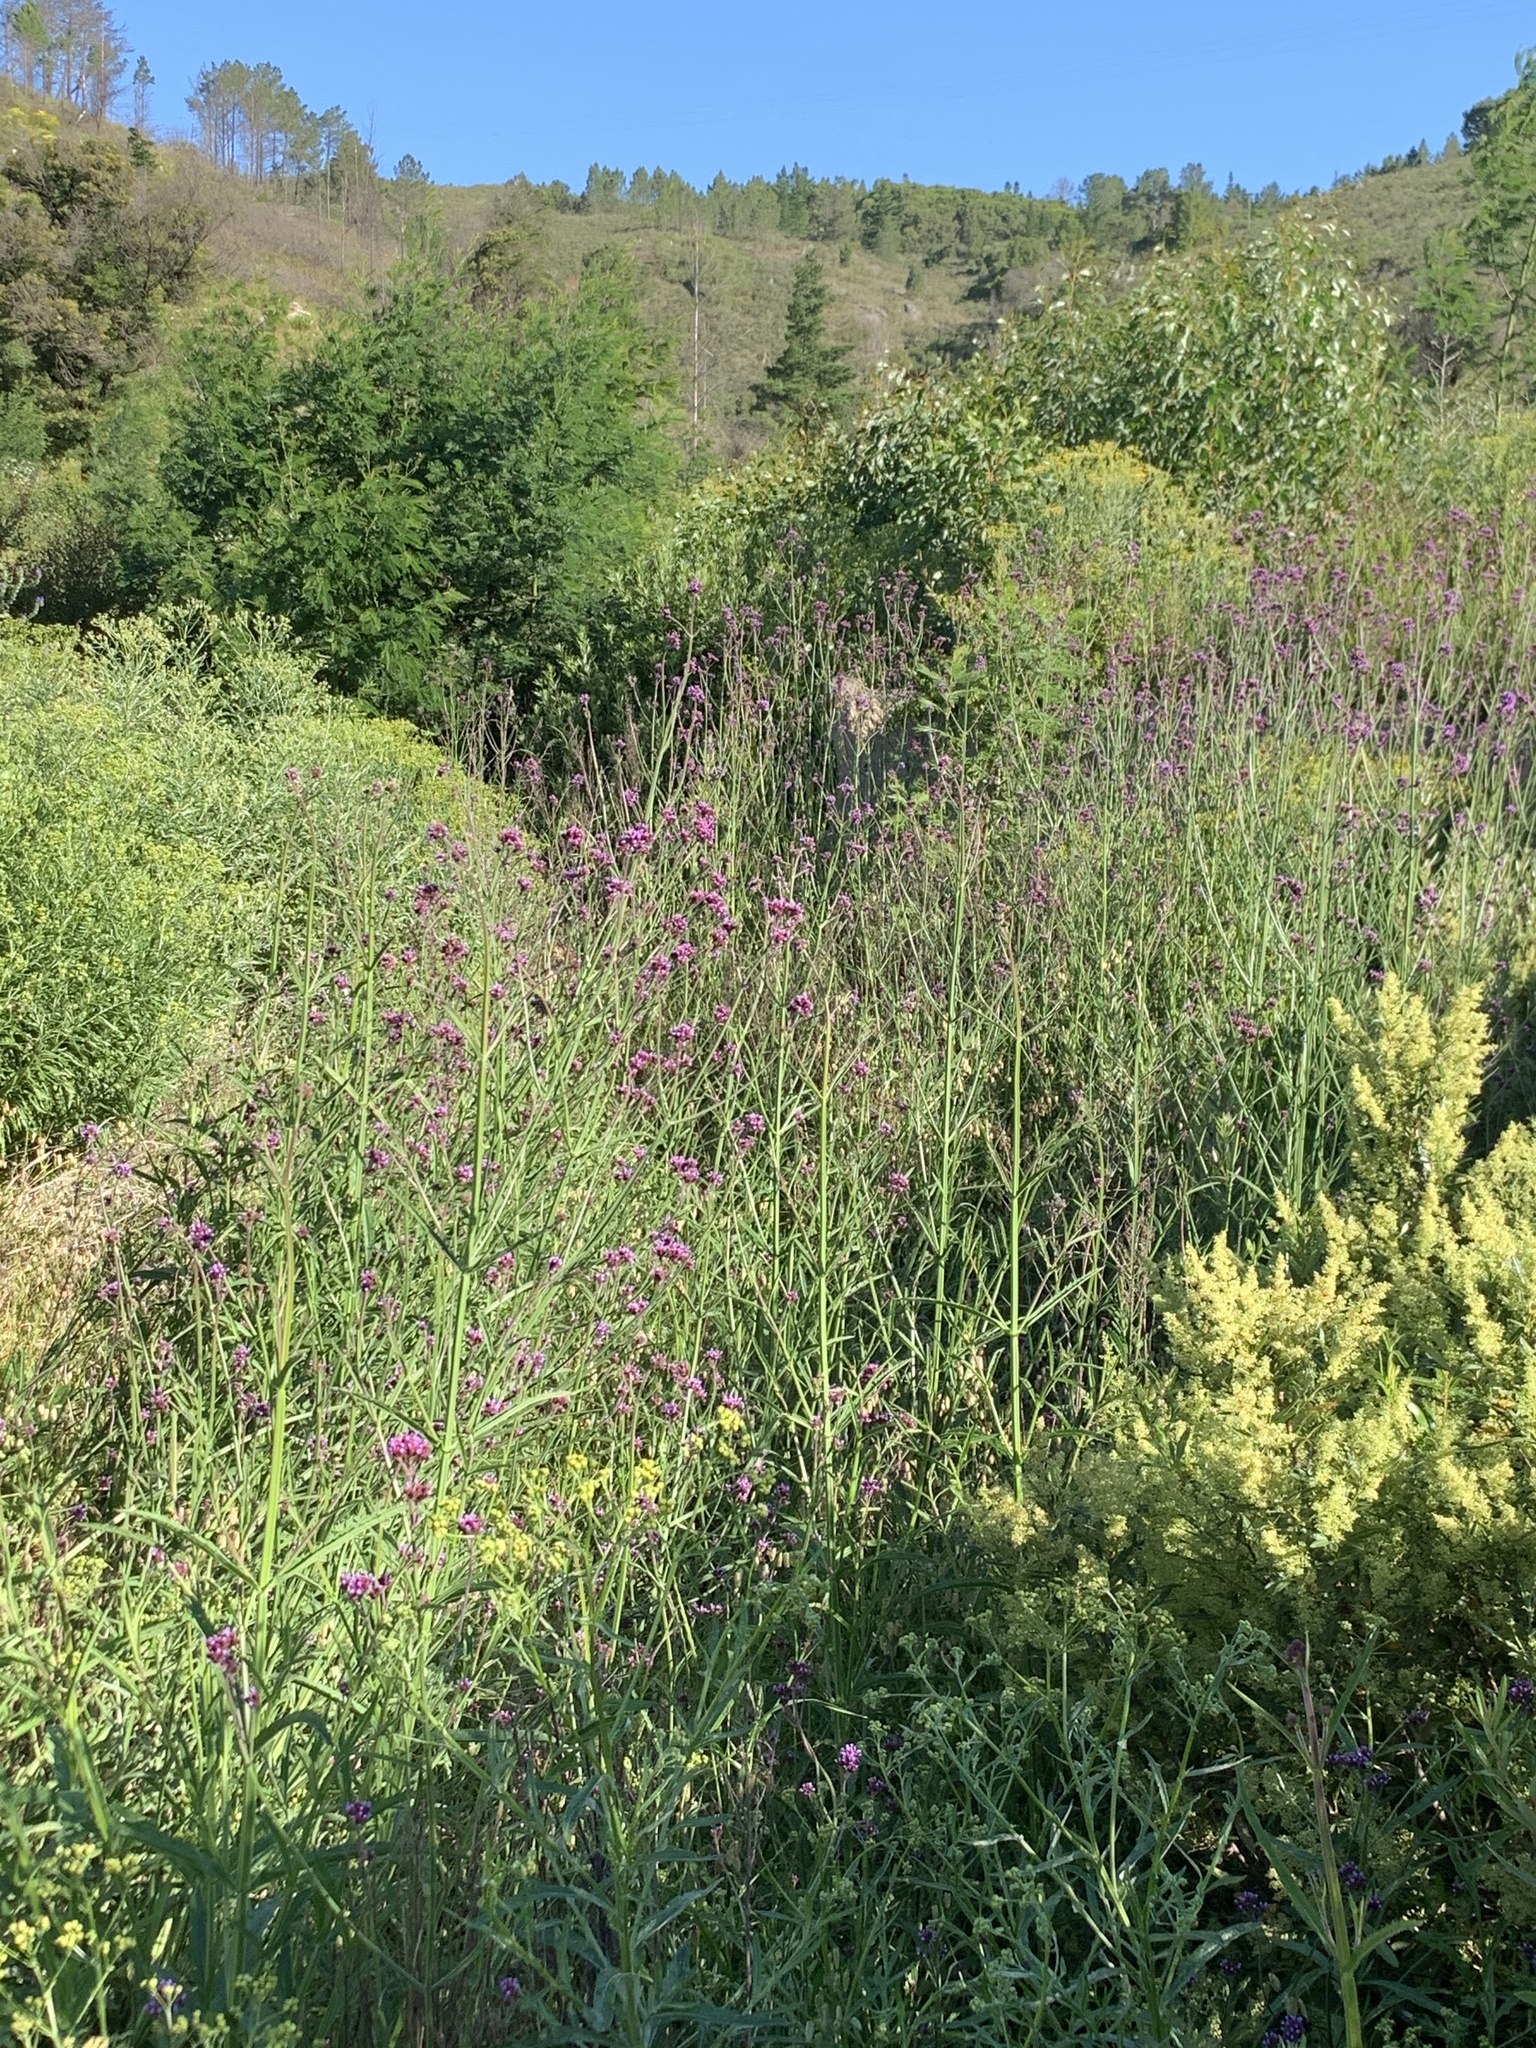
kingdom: Plantae
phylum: Tracheophyta
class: Magnoliopsida
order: Lamiales
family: Verbenaceae
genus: Verbena
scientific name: Verbena bonariensis
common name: Purpletop vervain
